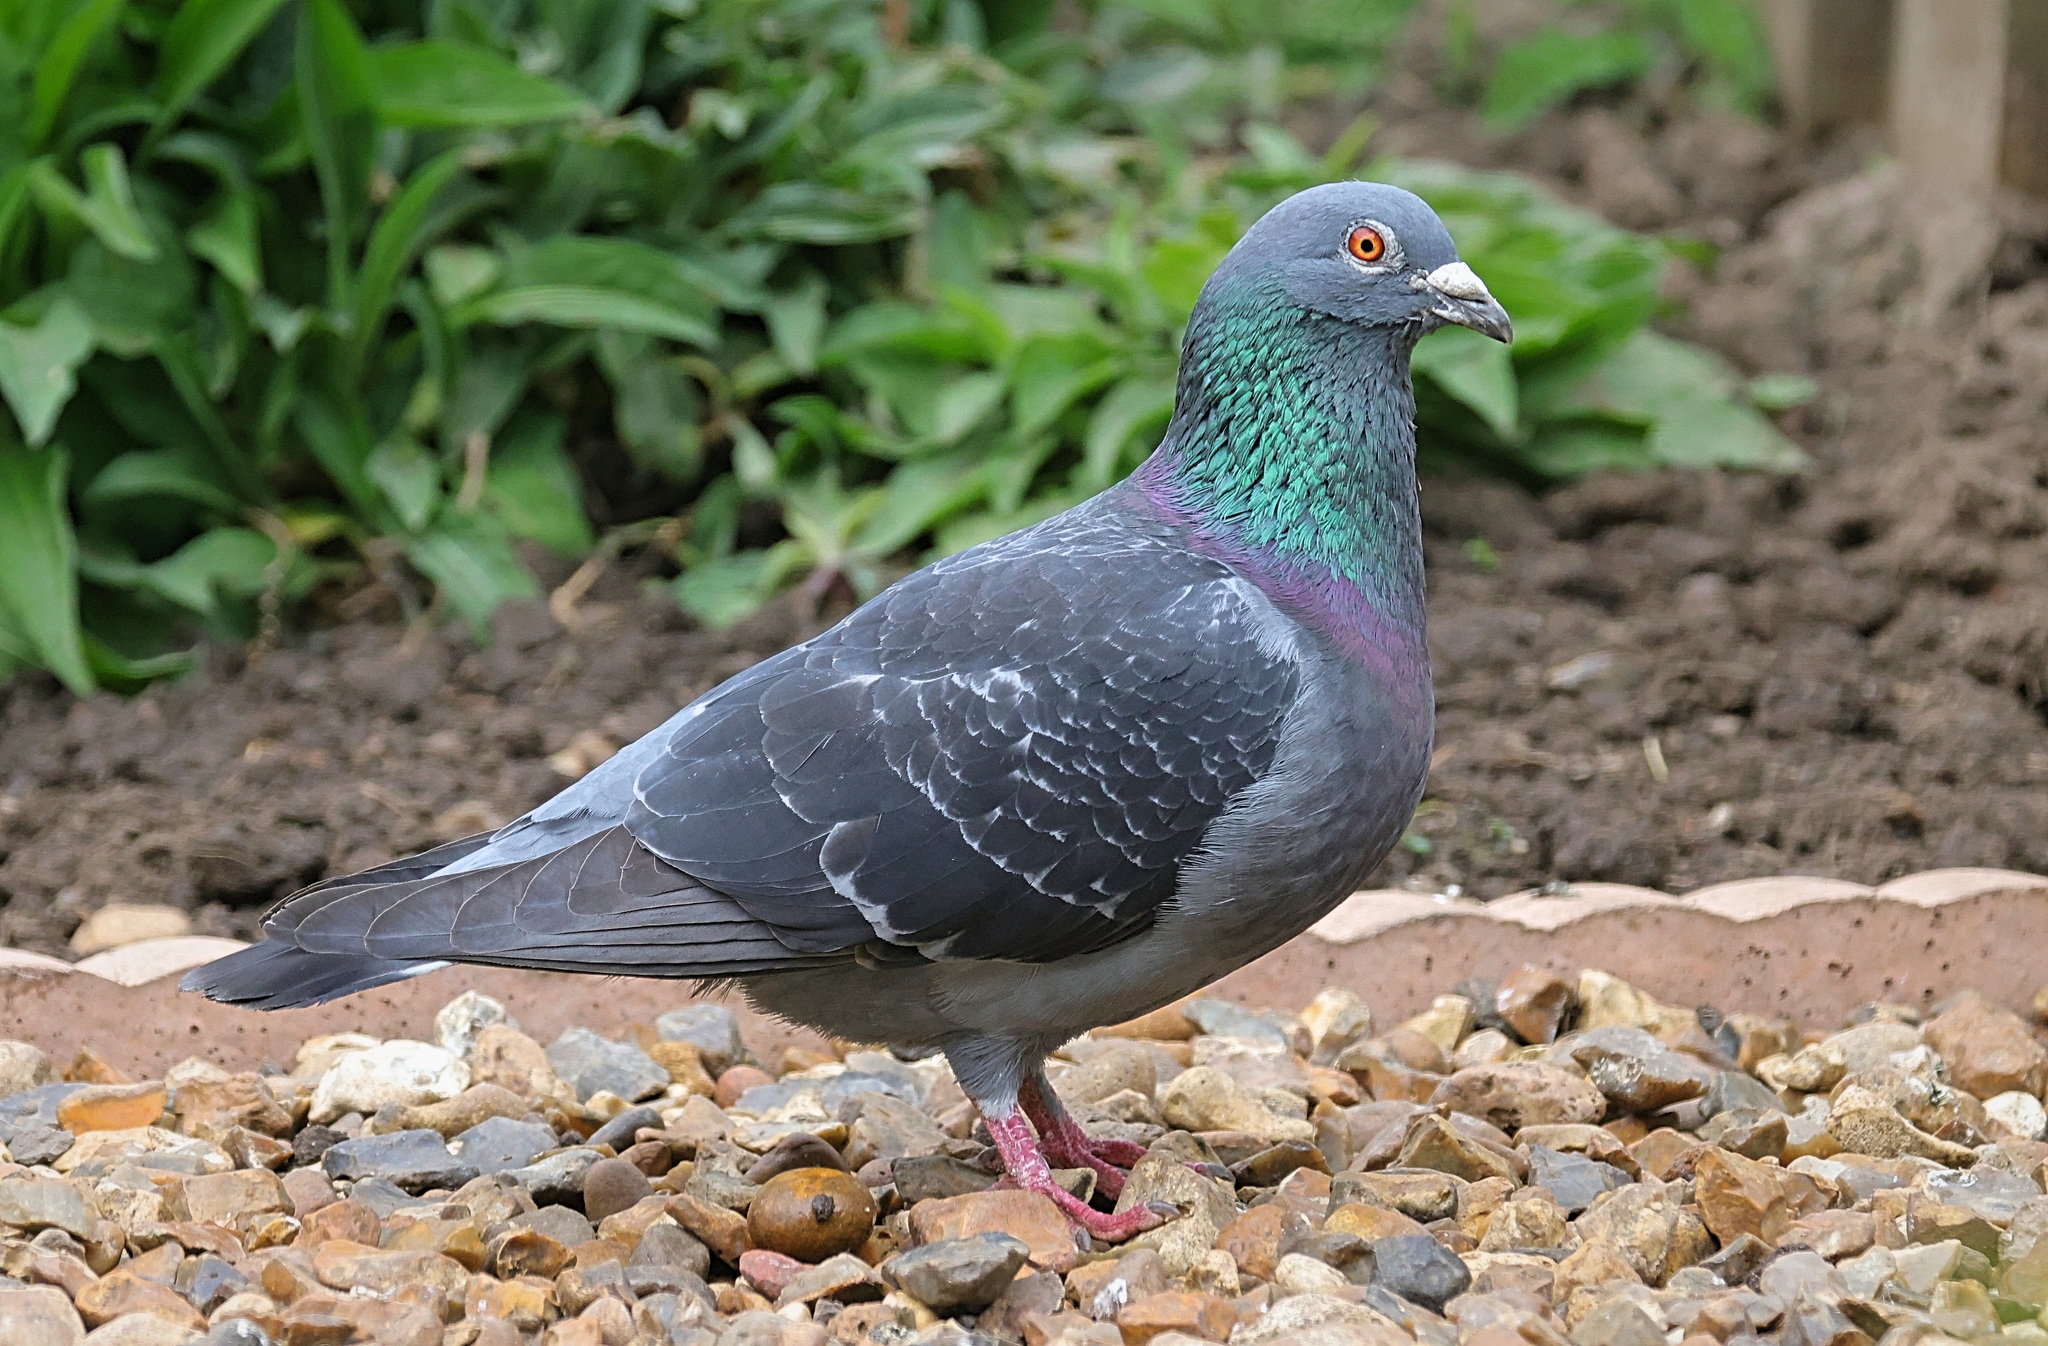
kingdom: Animalia
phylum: Chordata
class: Aves
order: Columbiformes
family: Columbidae
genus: Columba
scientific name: Columba livia
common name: Rock pigeon
